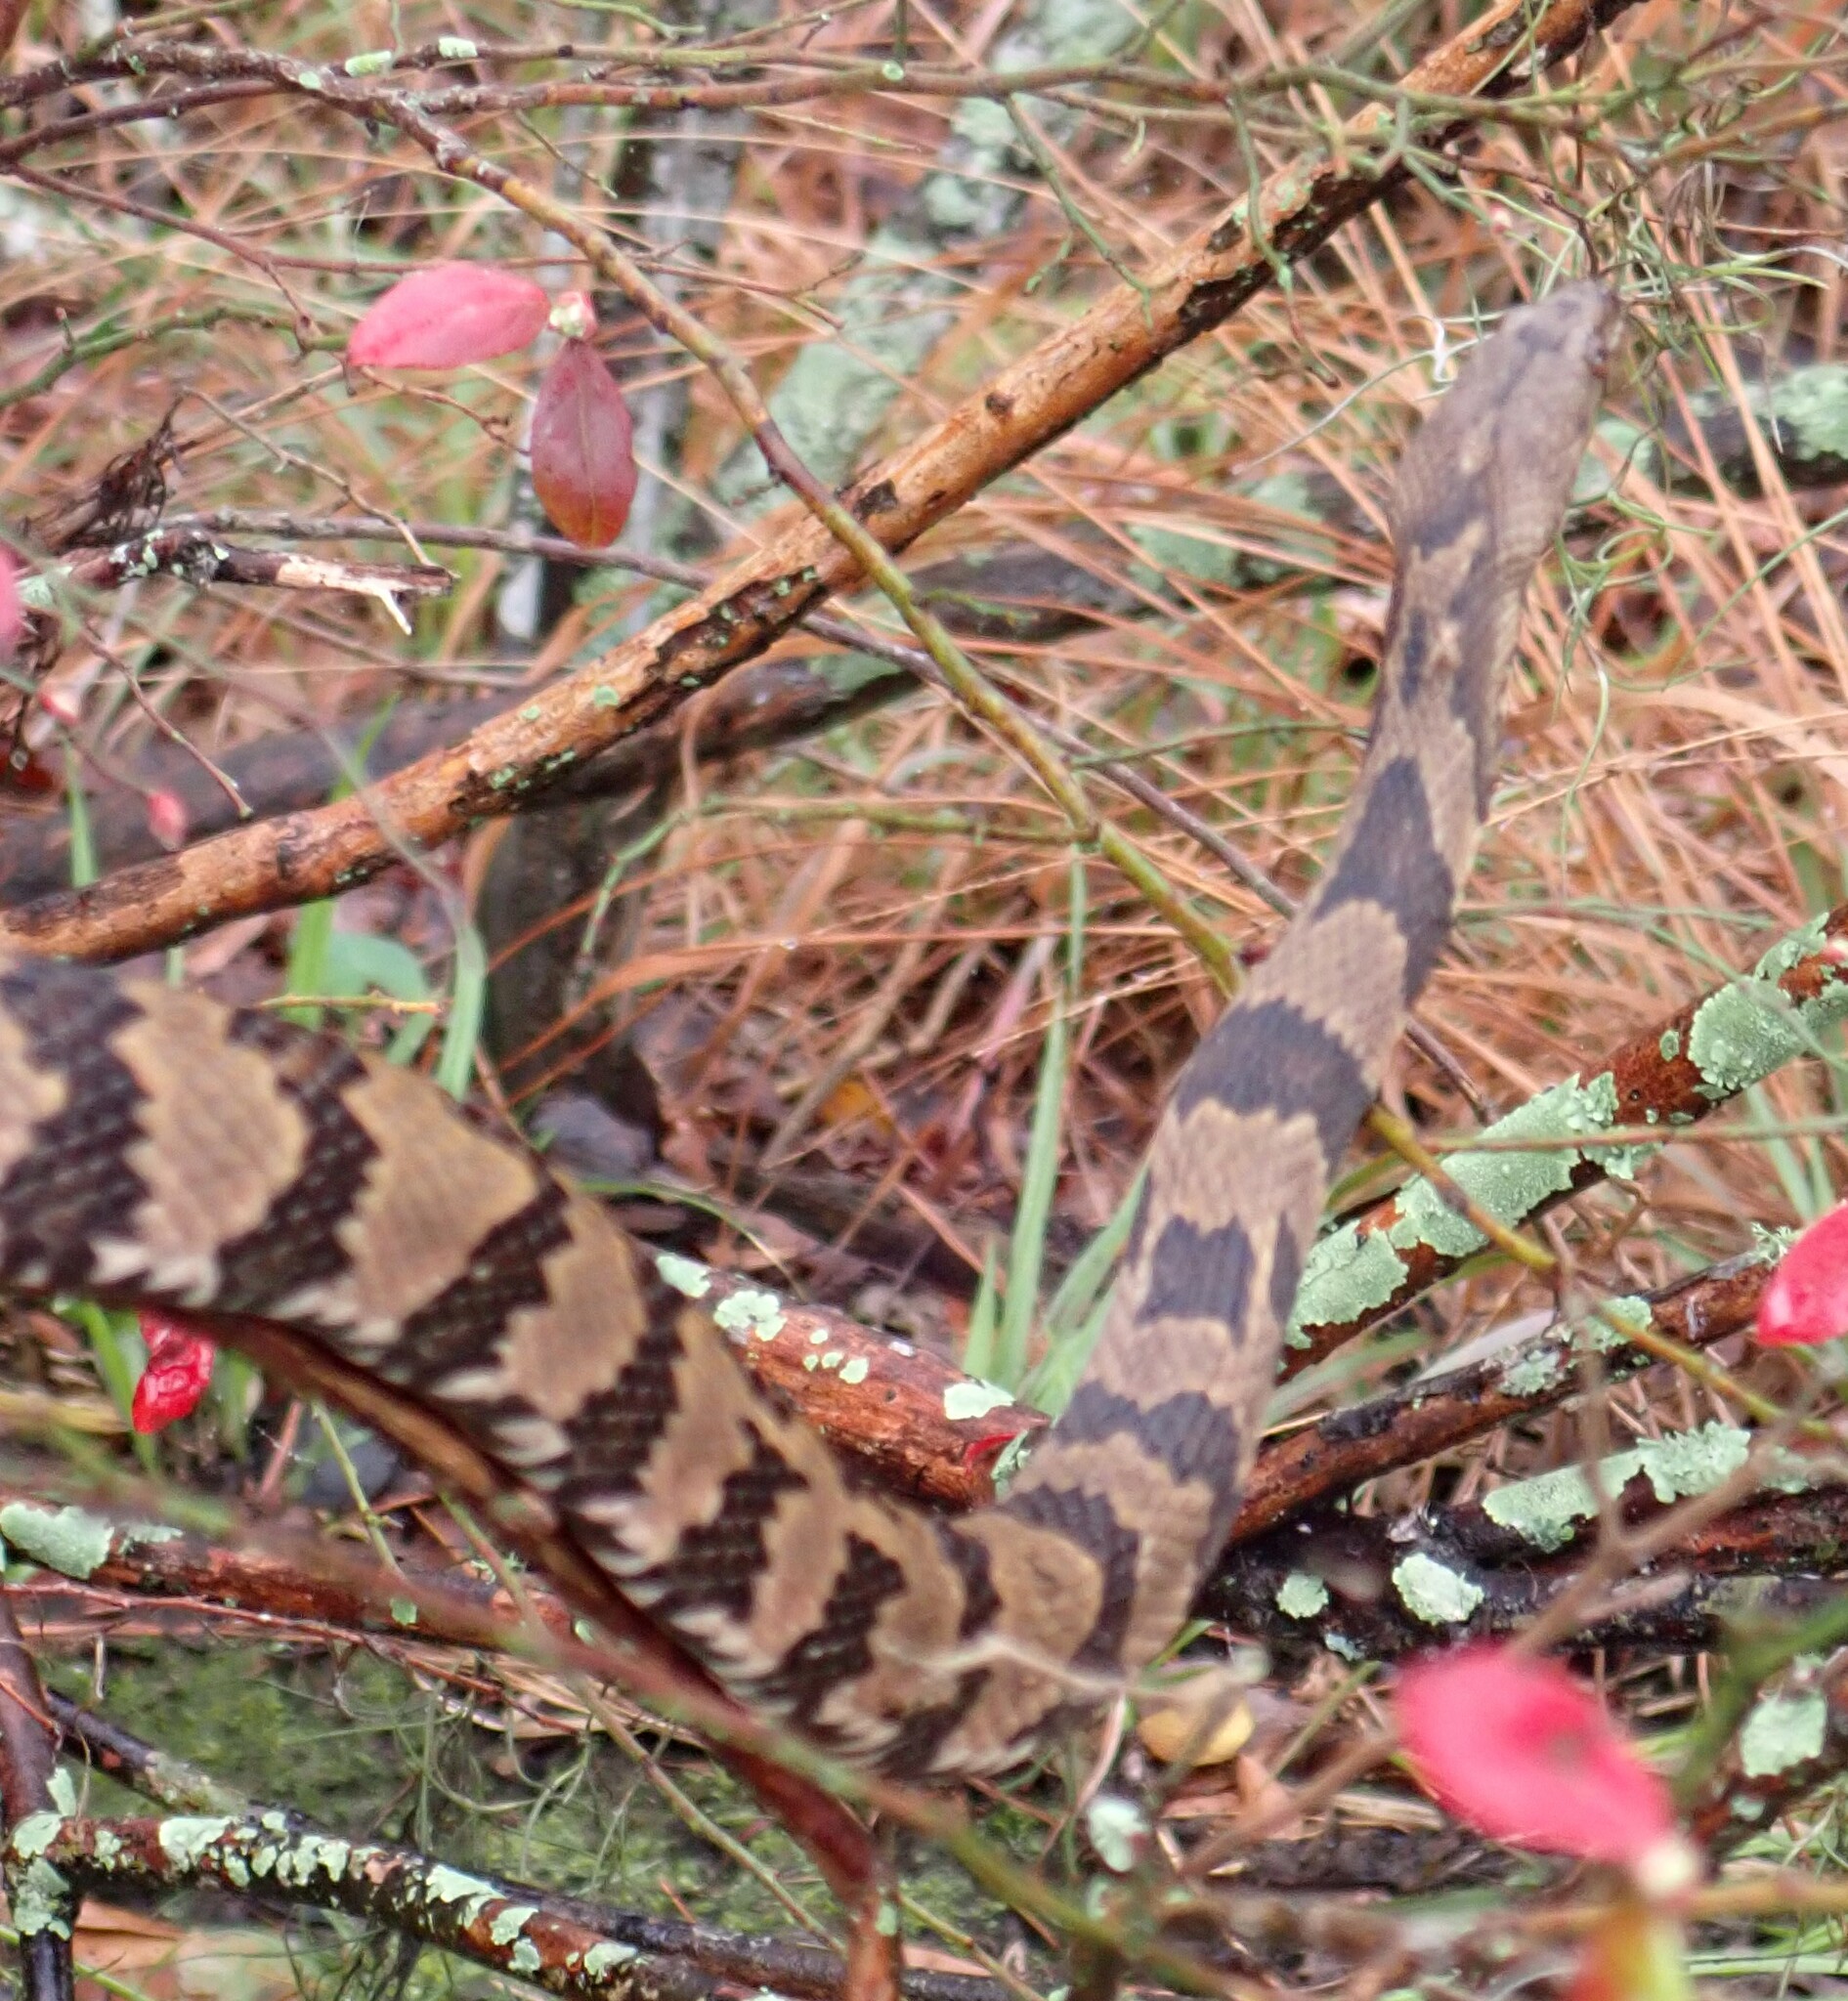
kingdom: Animalia
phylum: Chordata
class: Squamata
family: Colubridae
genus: Nerodia
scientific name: Nerodia taxispilota
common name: Brown water snake
